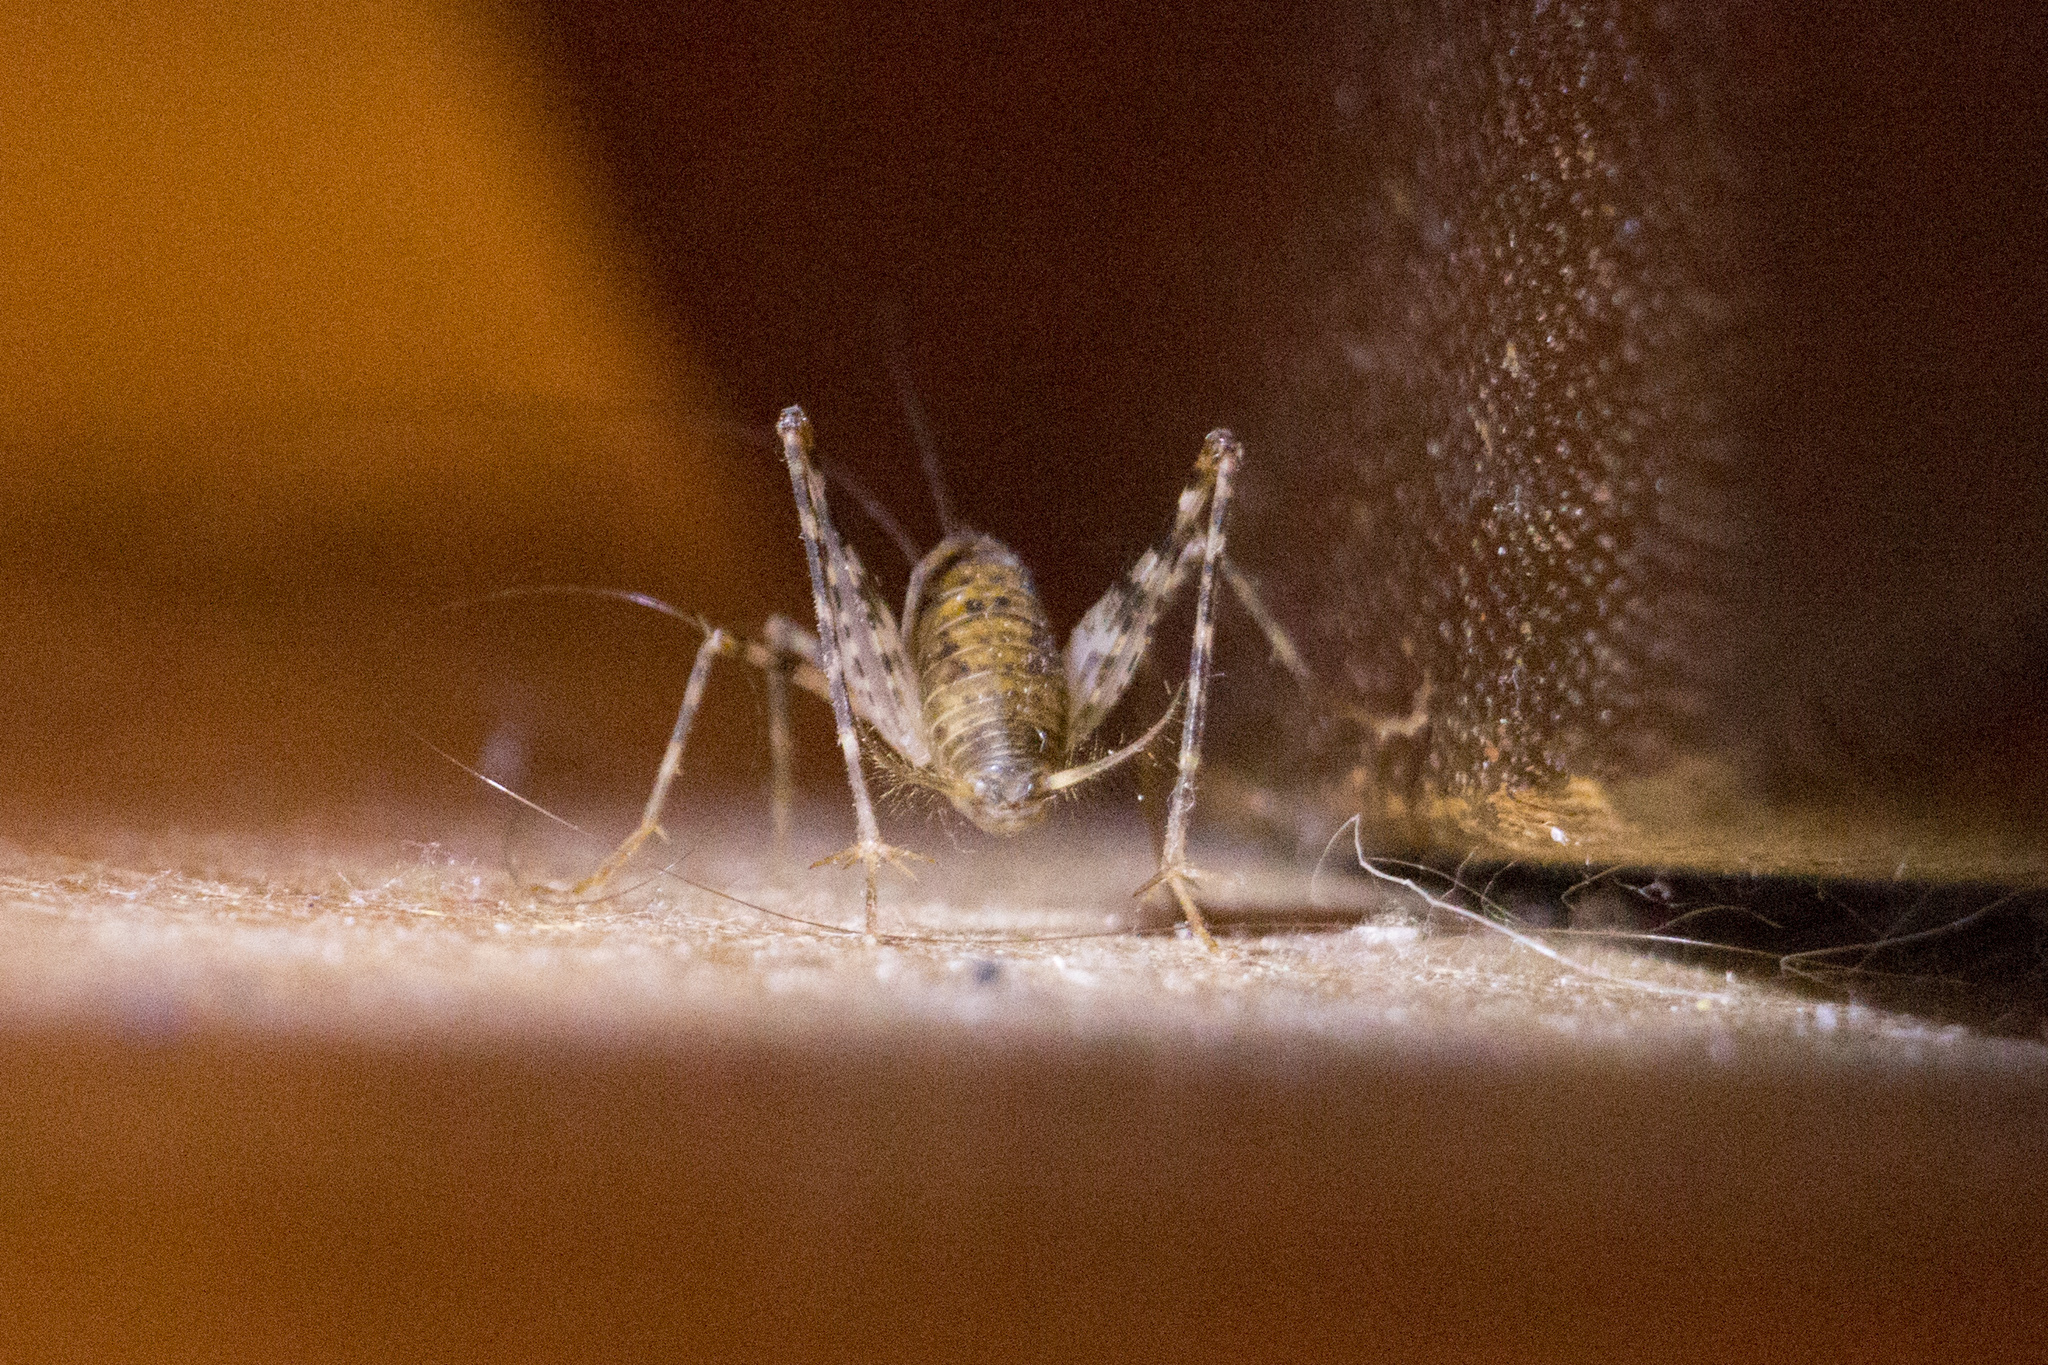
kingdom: Animalia
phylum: Arthropoda
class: Insecta
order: Orthoptera
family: Rhaphidophoridae
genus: Tachycines
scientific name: Tachycines asynamorus
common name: Greenhouse camel cricket
